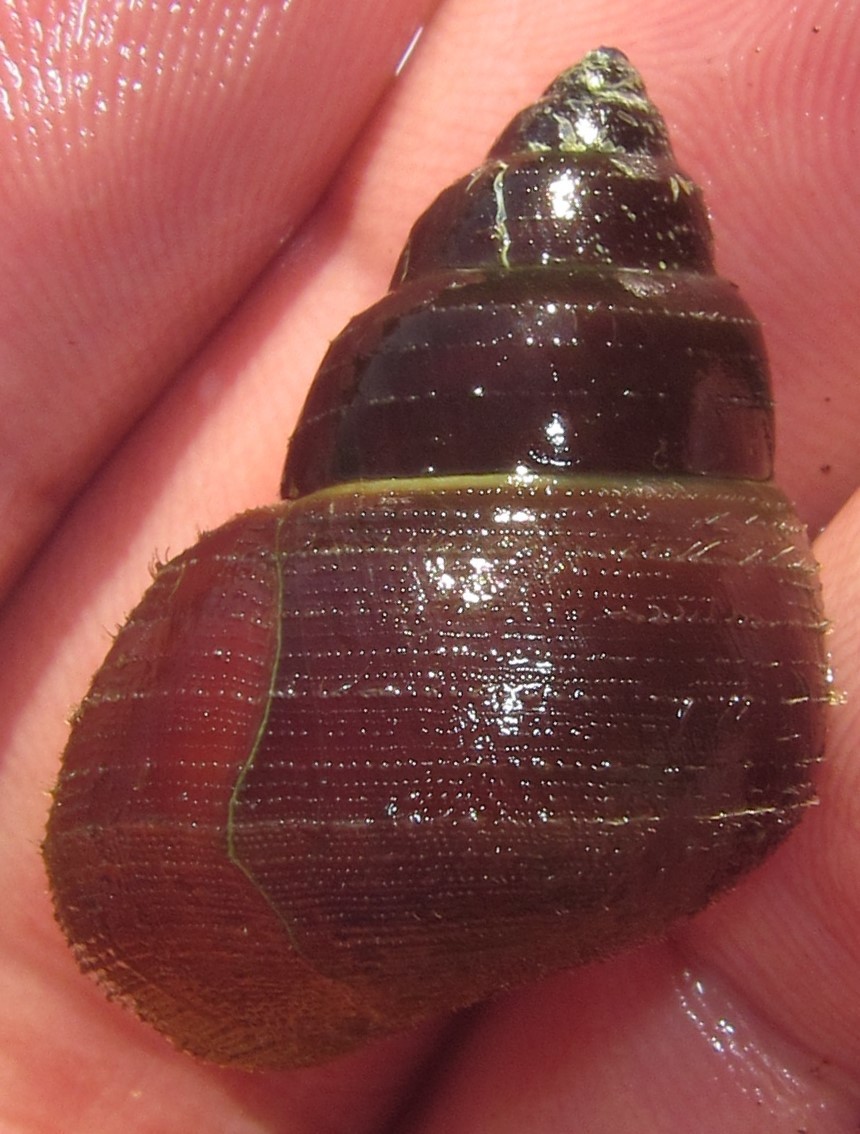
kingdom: Animalia
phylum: Mollusca
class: Gastropoda
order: Architaenioglossa
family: Viviparidae
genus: Bellamya
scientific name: Bellamya capillata
